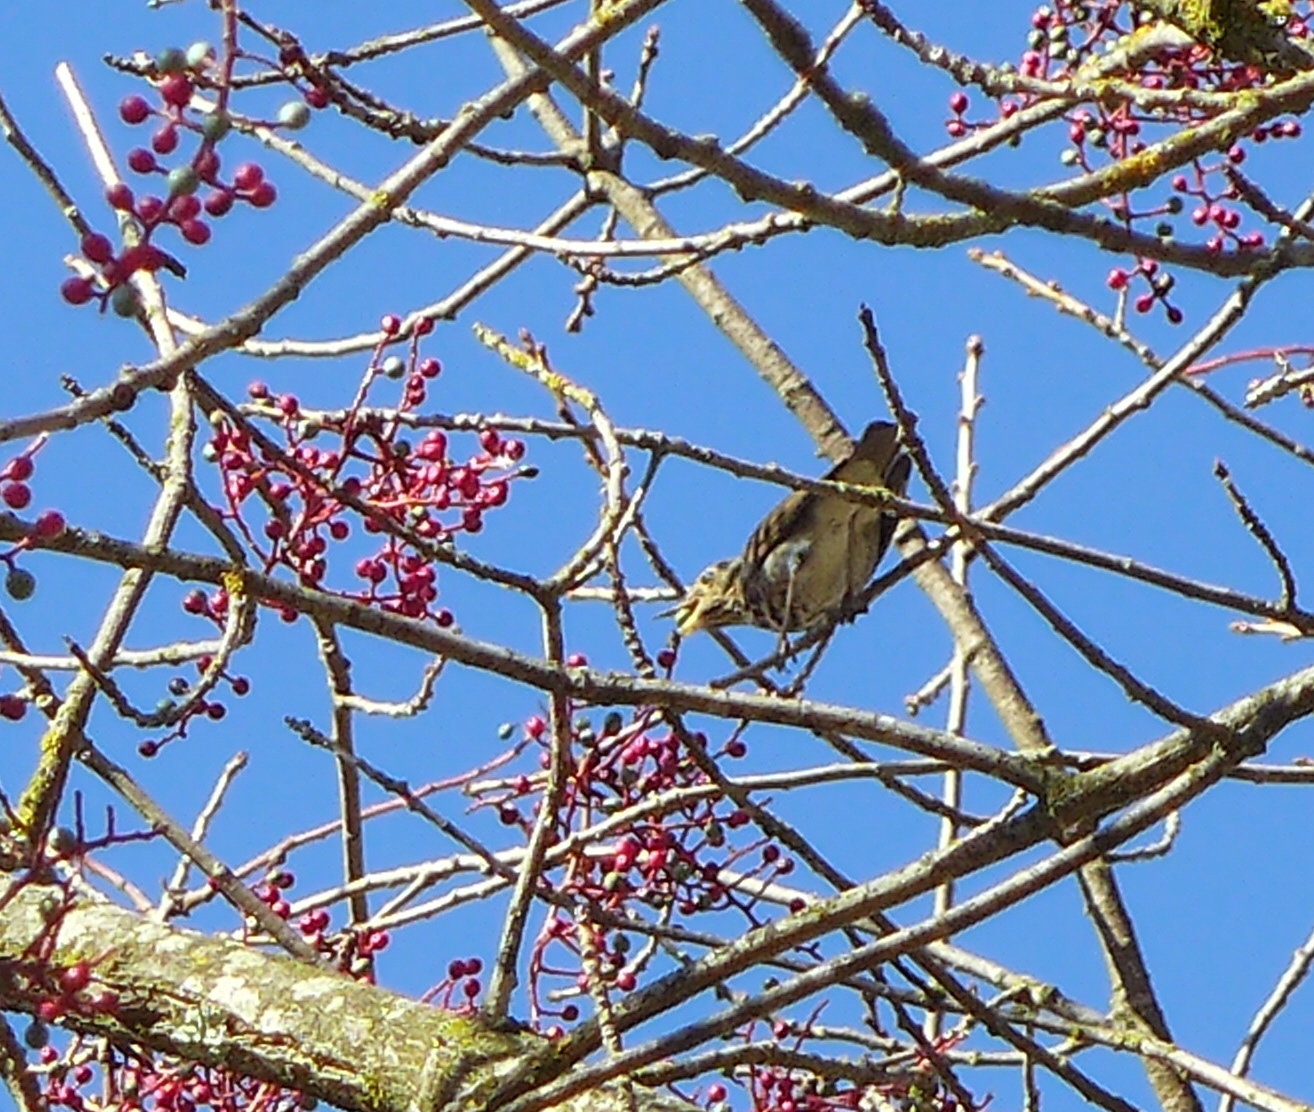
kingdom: Animalia
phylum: Chordata
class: Aves
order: Passeriformes
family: Parulidae
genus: Setophaga
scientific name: Setophaga coronata
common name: Myrtle warbler
